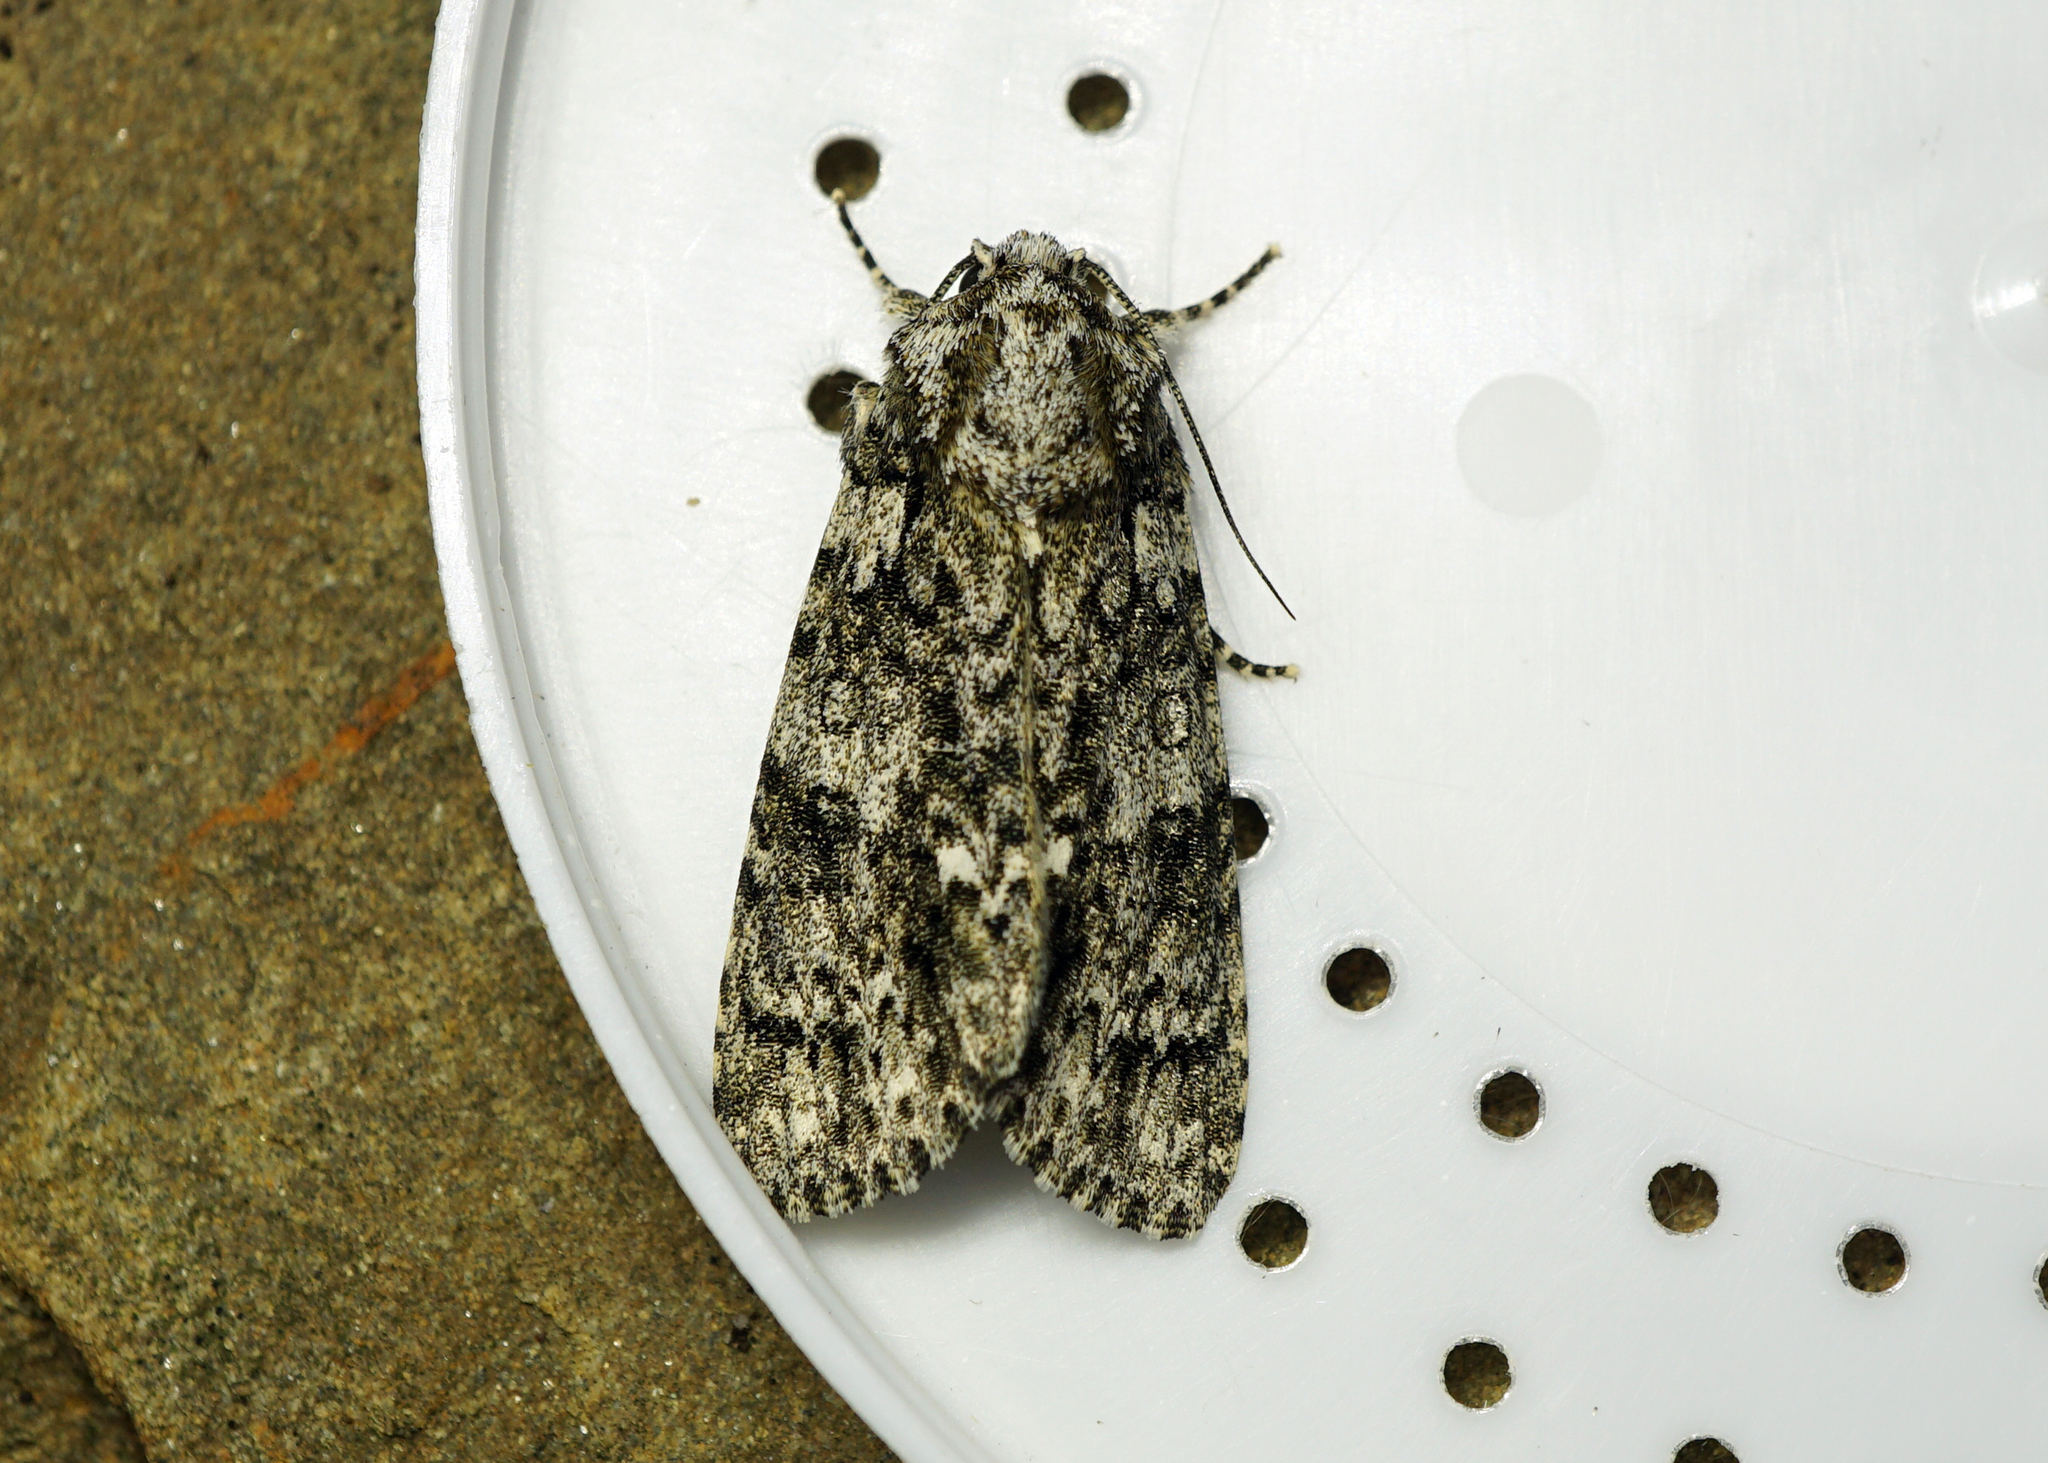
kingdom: Animalia
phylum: Arthropoda
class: Insecta
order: Lepidoptera
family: Noctuidae
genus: Acronicta
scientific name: Acronicta rumicis
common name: Knot grass
